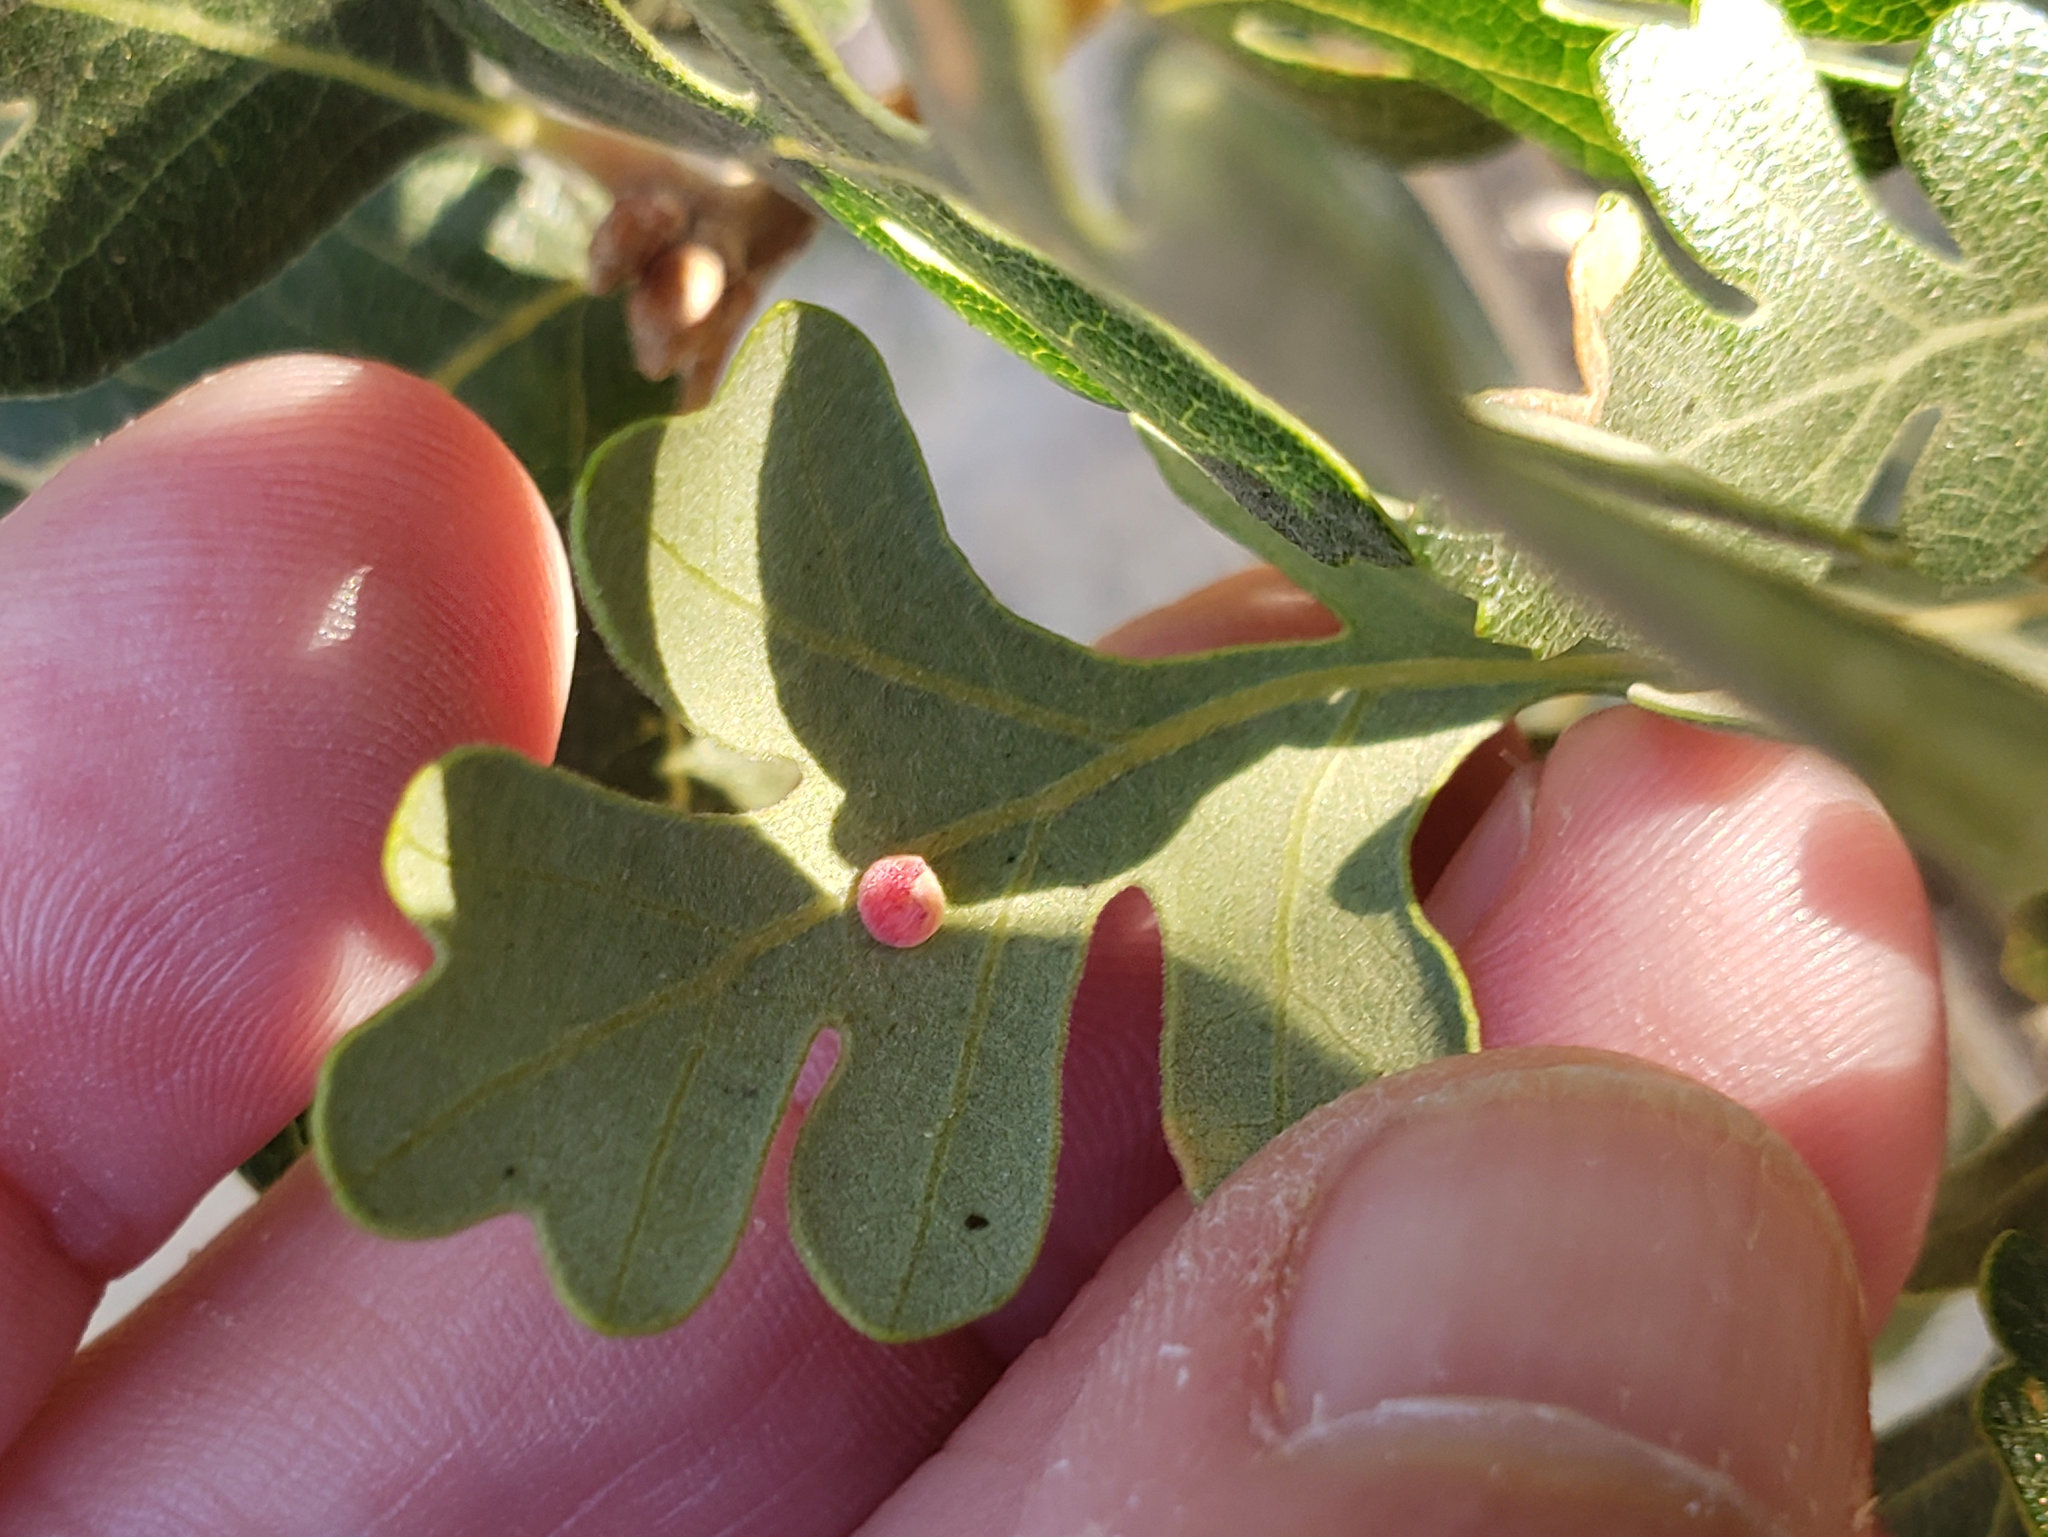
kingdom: Plantae
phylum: Tracheophyta
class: Magnoliopsida
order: Fagales
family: Fagaceae
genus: Quercus
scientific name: Quercus lobata
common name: Valley oak
